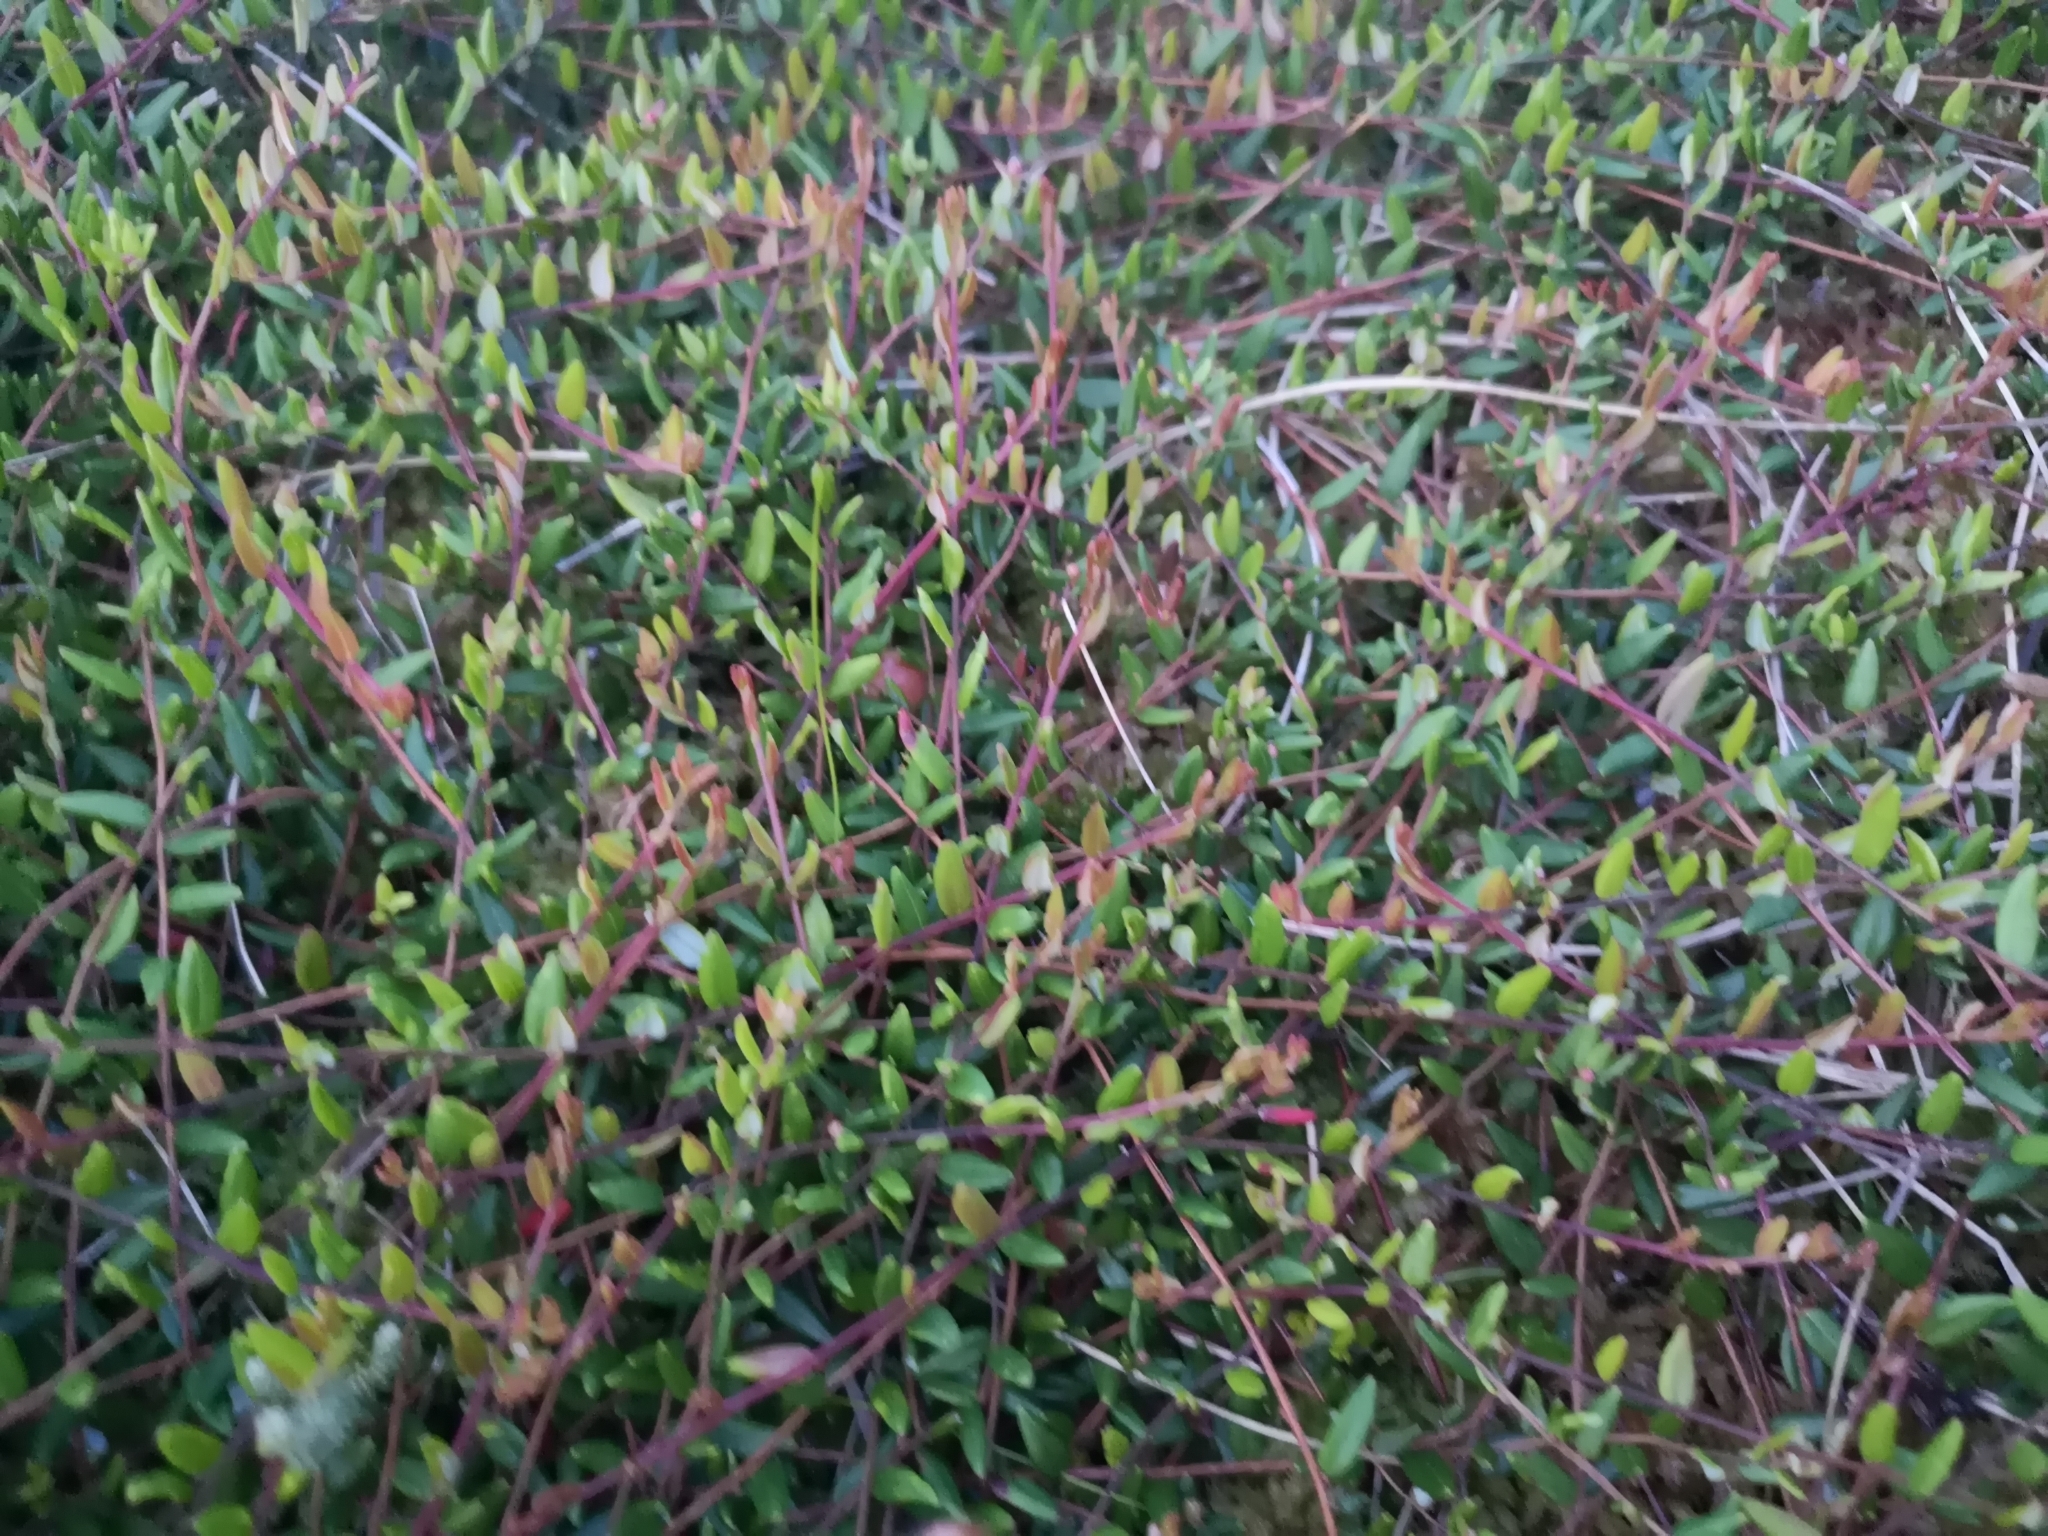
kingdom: Plantae
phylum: Tracheophyta
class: Magnoliopsida
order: Ericales
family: Ericaceae
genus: Vaccinium
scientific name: Vaccinium oxycoccos
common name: Cranberry
